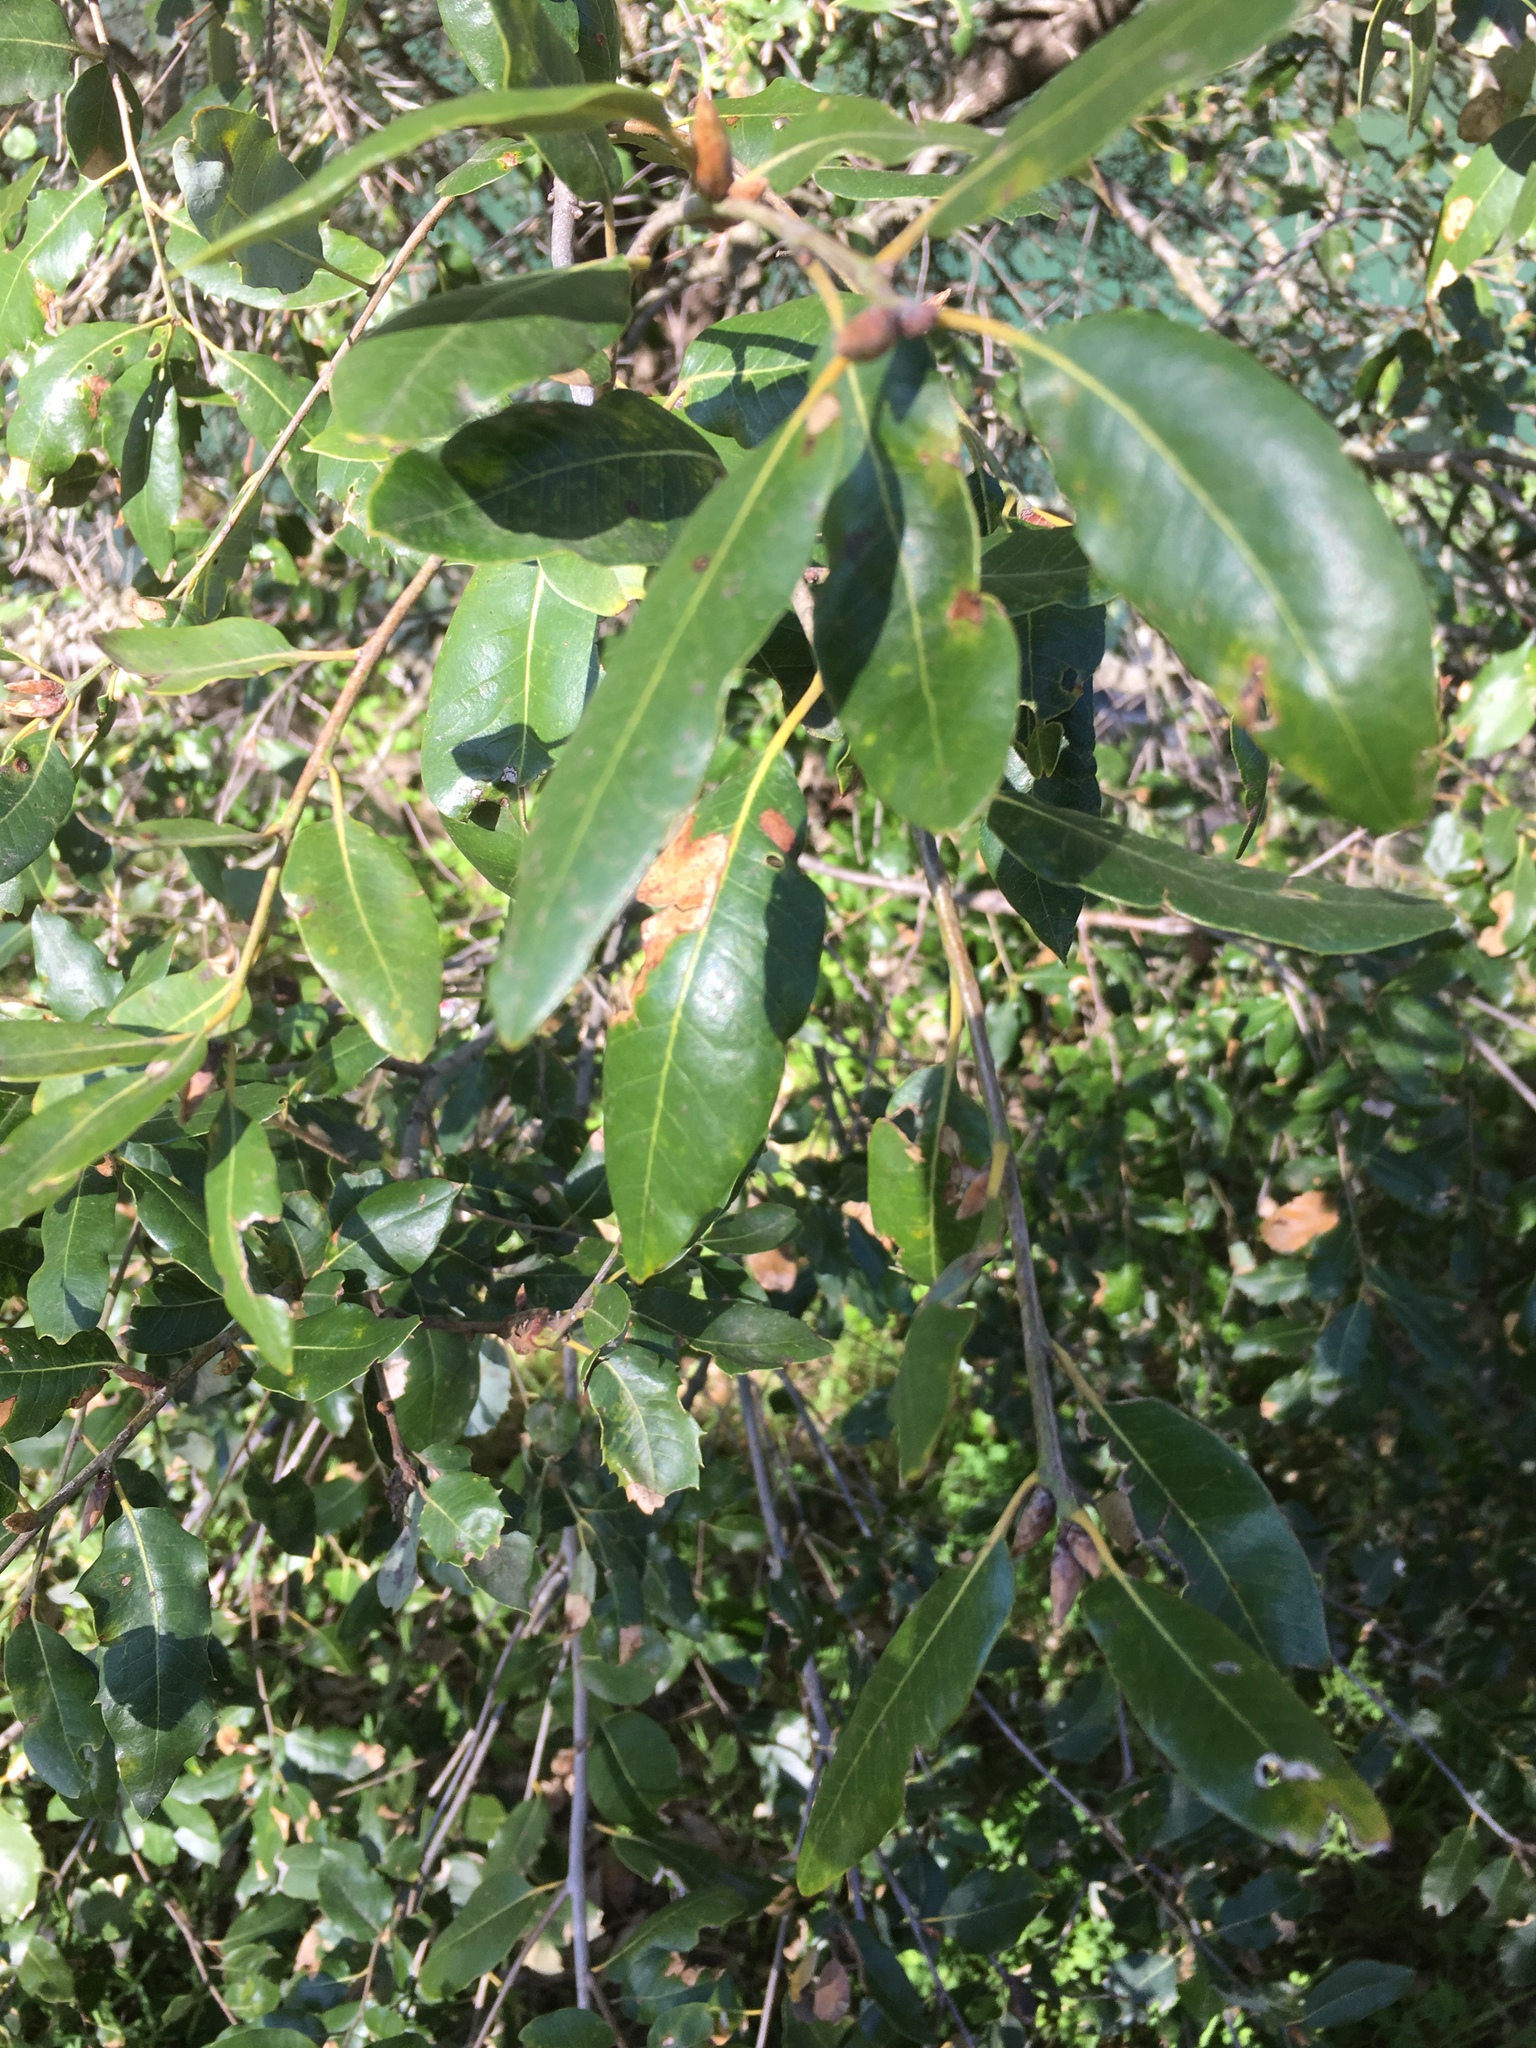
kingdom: Plantae
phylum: Tracheophyta
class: Magnoliopsida
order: Fagales
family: Fagaceae
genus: Quercus
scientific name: Quercus chrysolepis
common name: Canyon live oak
